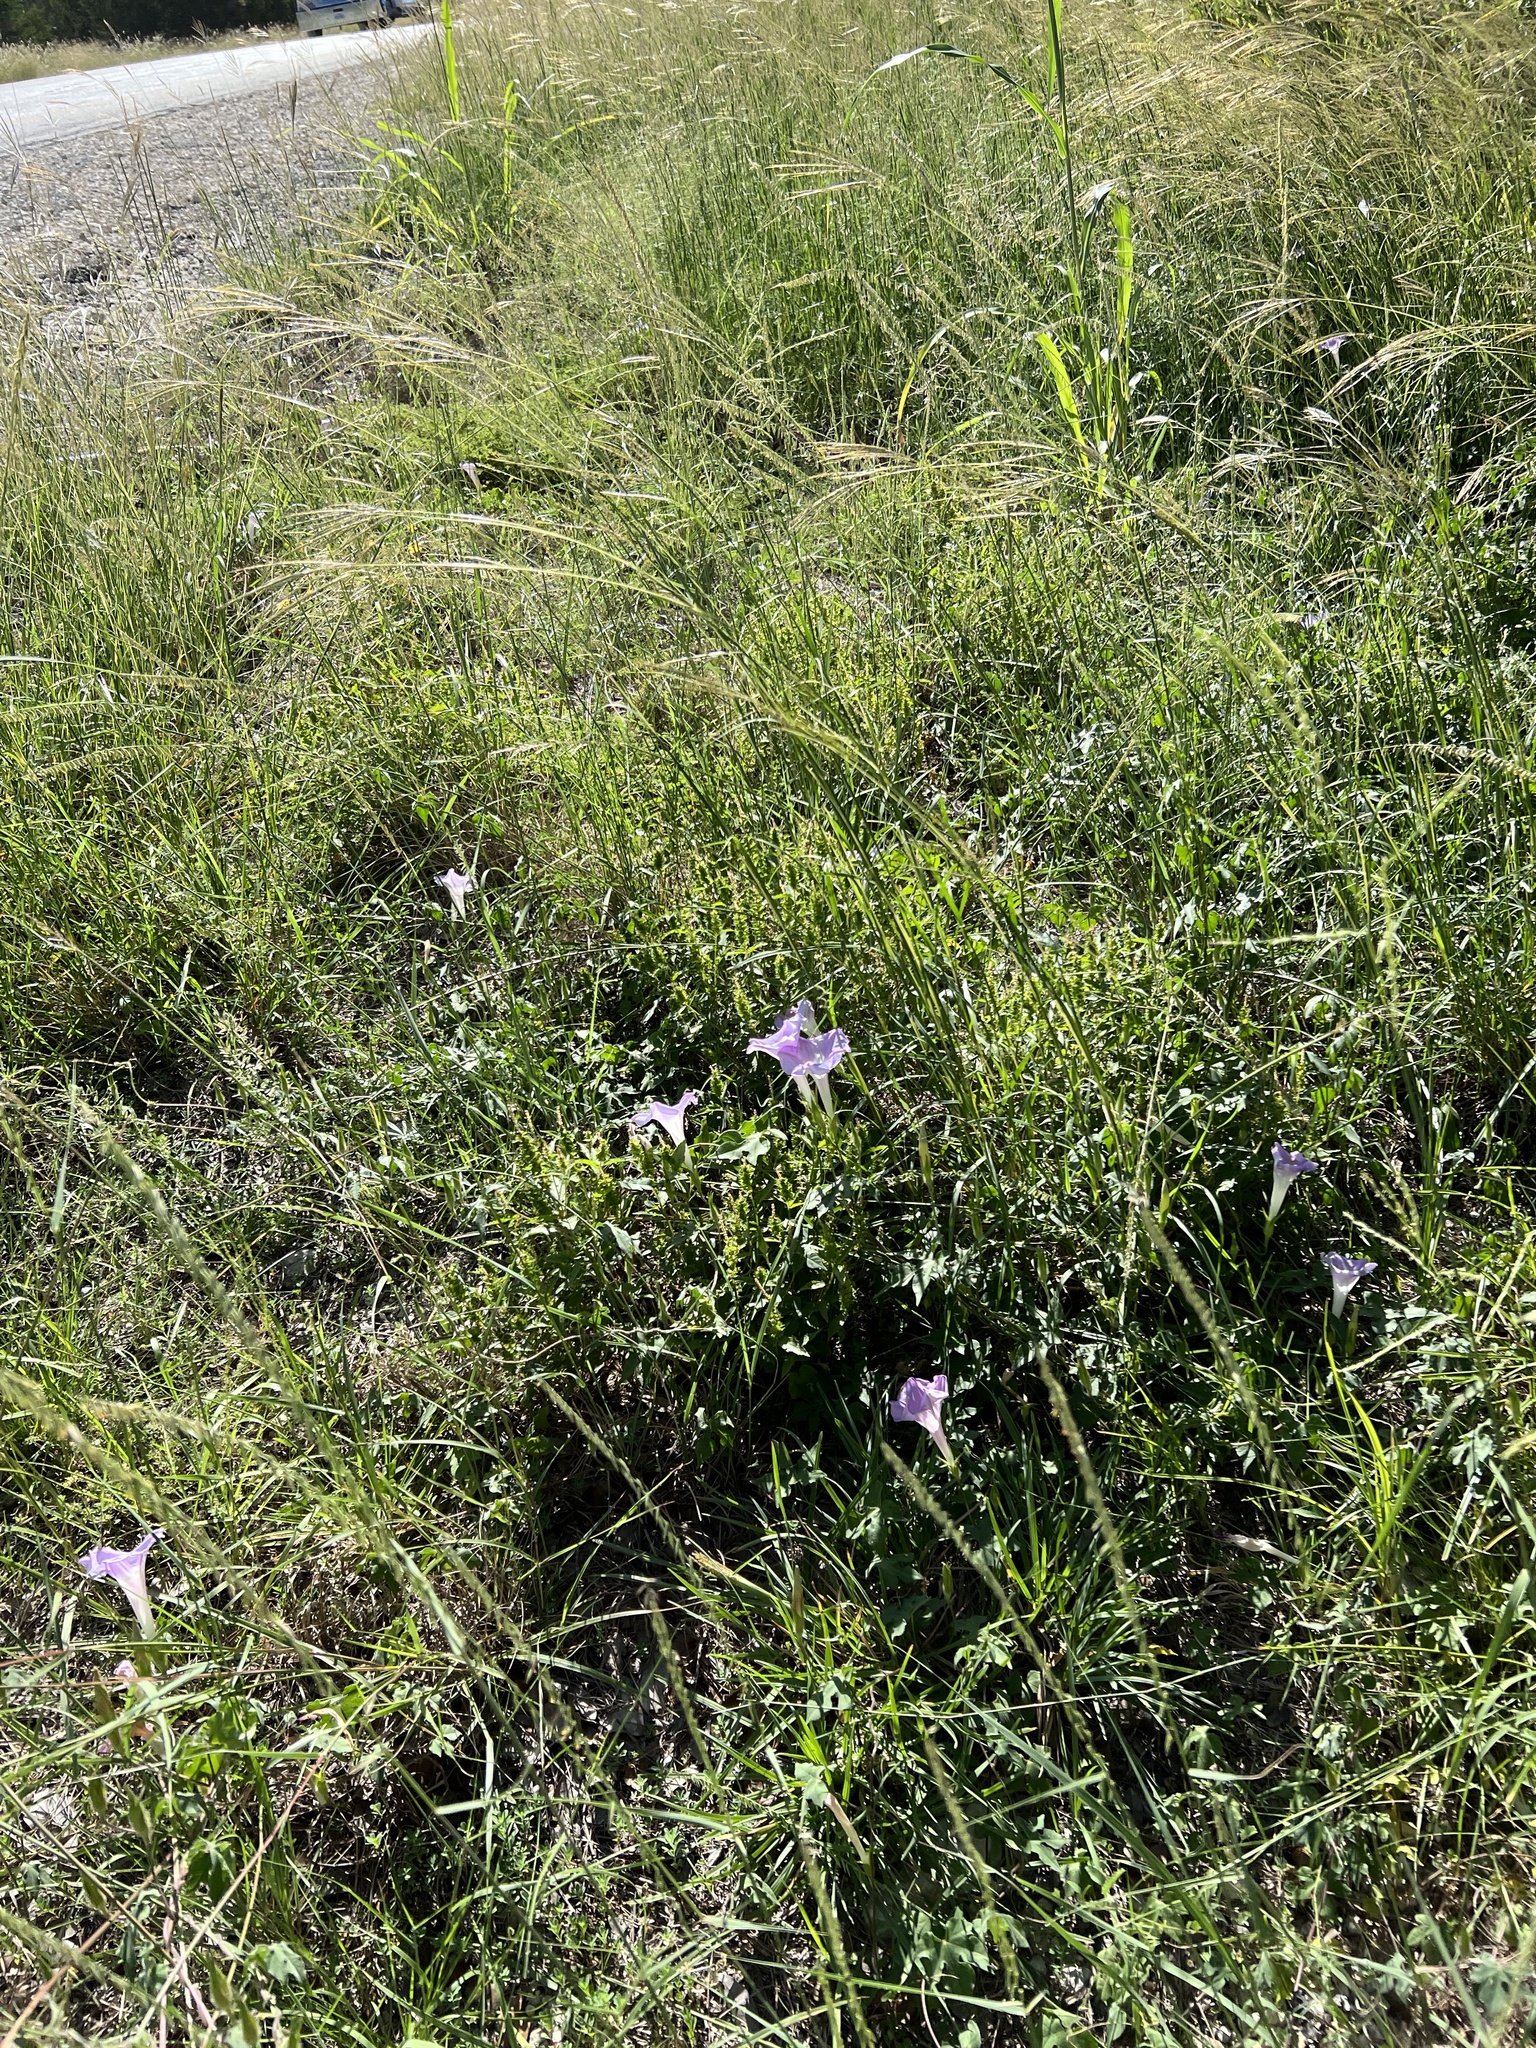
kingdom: Plantae
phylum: Tracheophyta
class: Magnoliopsida
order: Solanales
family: Convolvulaceae
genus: Ipomoea
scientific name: Ipomoea lindheimeri
